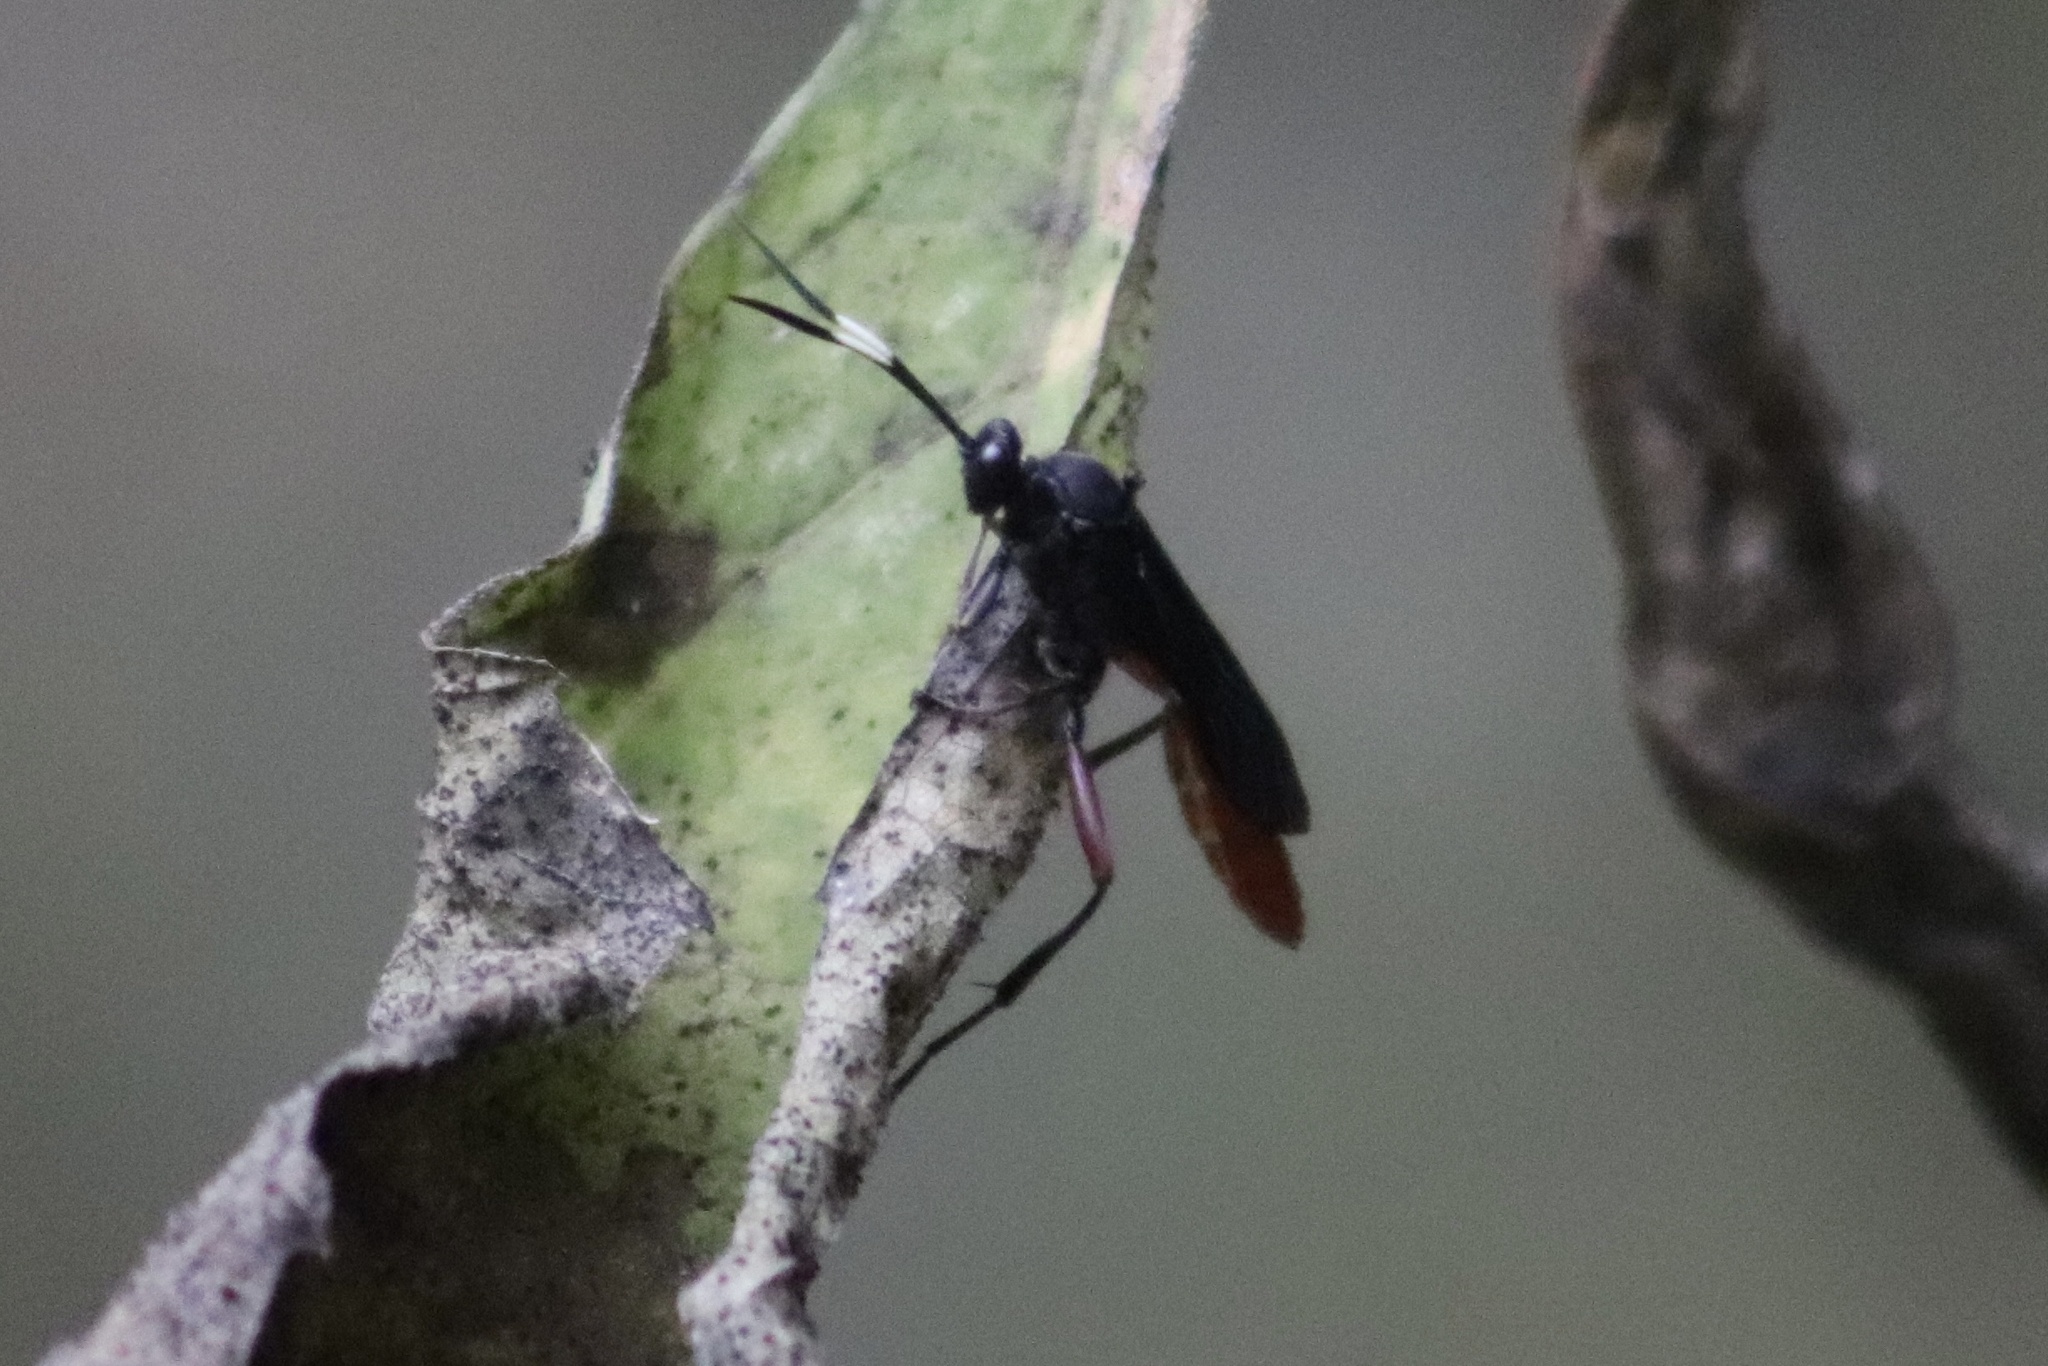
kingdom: Animalia
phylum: Arthropoda
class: Insecta
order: Hymenoptera
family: Ichneumonidae
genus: Limonethe
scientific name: Limonethe maurator
